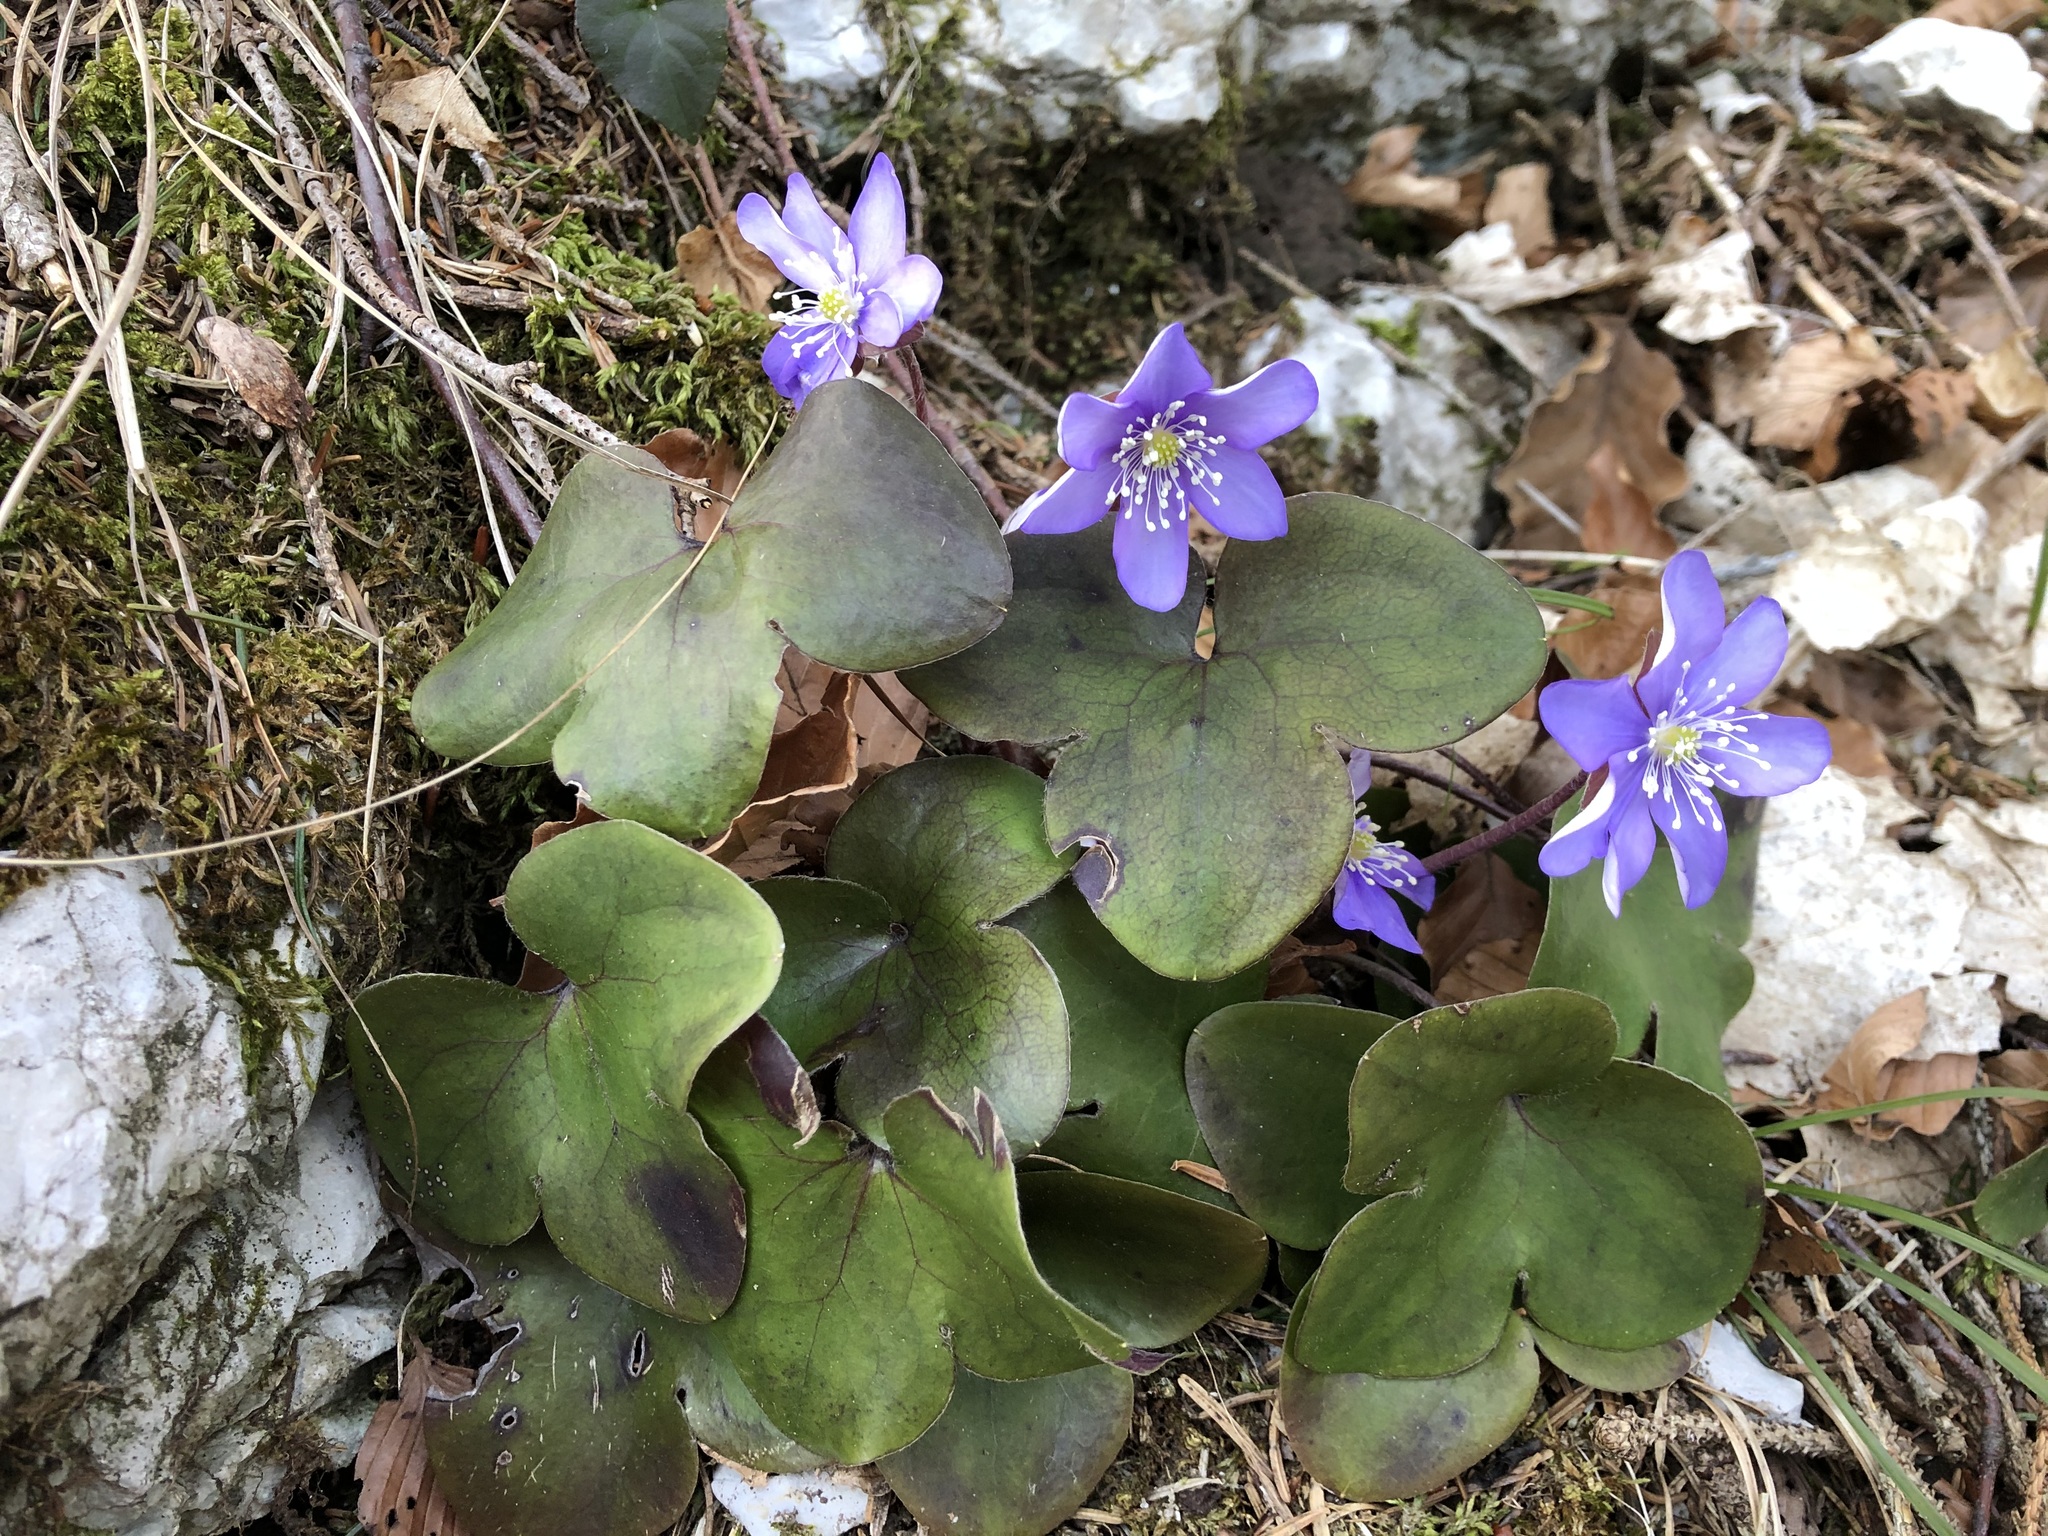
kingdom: Plantae
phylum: Tracheophyta
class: Magnoliopsida
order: Ranunculales
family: Ranunculaceae
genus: Hepatica
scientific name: Hepatica nobilis
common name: Liverleaf
